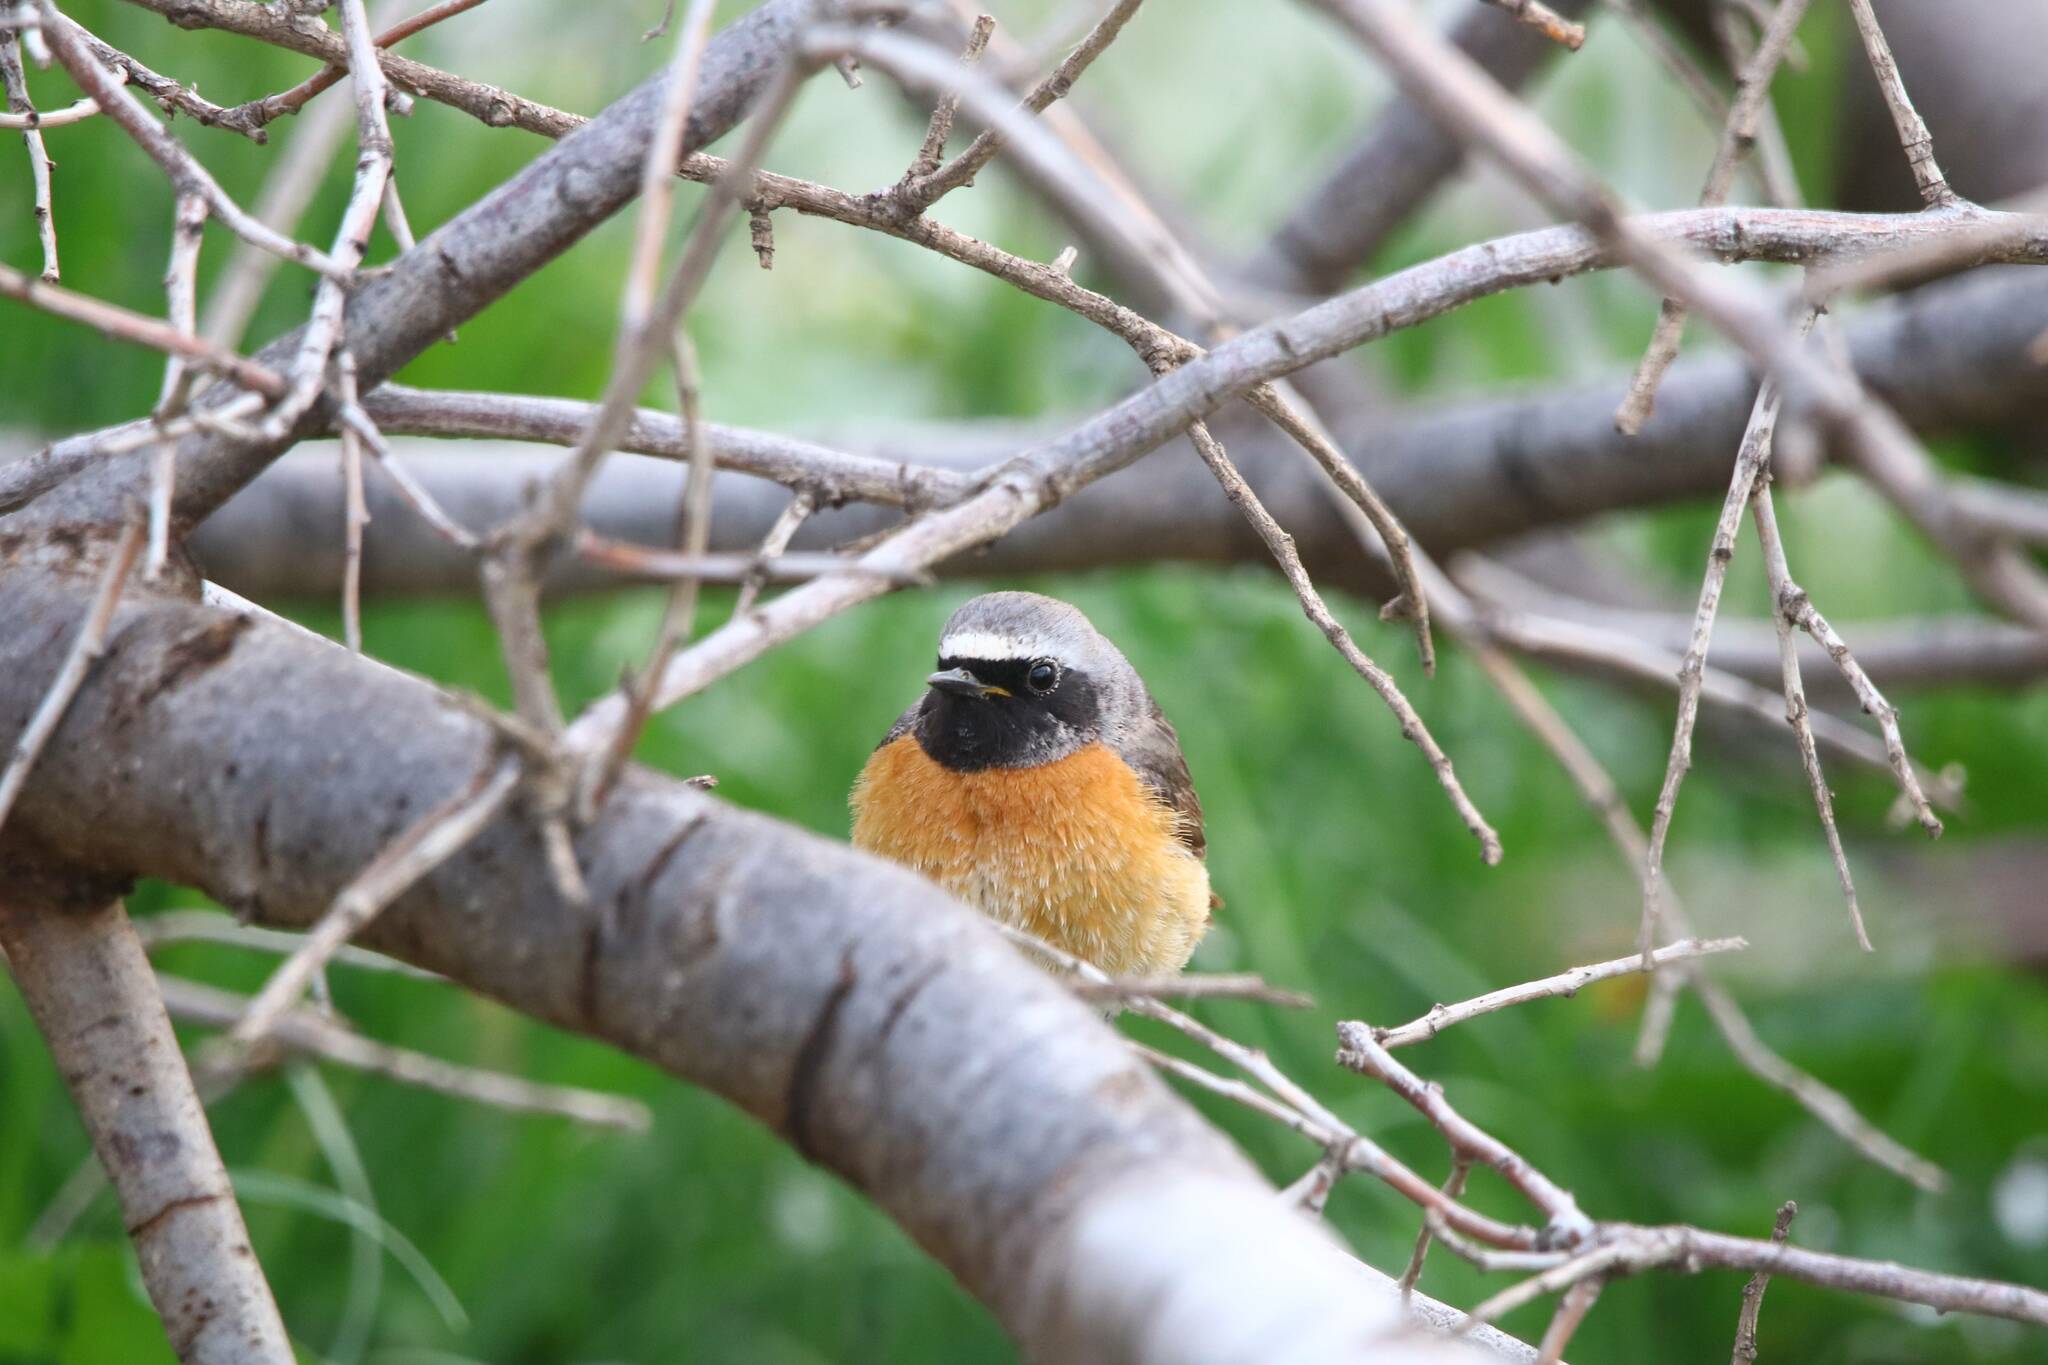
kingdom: Animalia
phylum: Chordata
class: Aves
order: Passeriformes
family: Muscicapidae
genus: Phoenicurus
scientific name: Phoenicurus phoenicurus
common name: Common redstart
